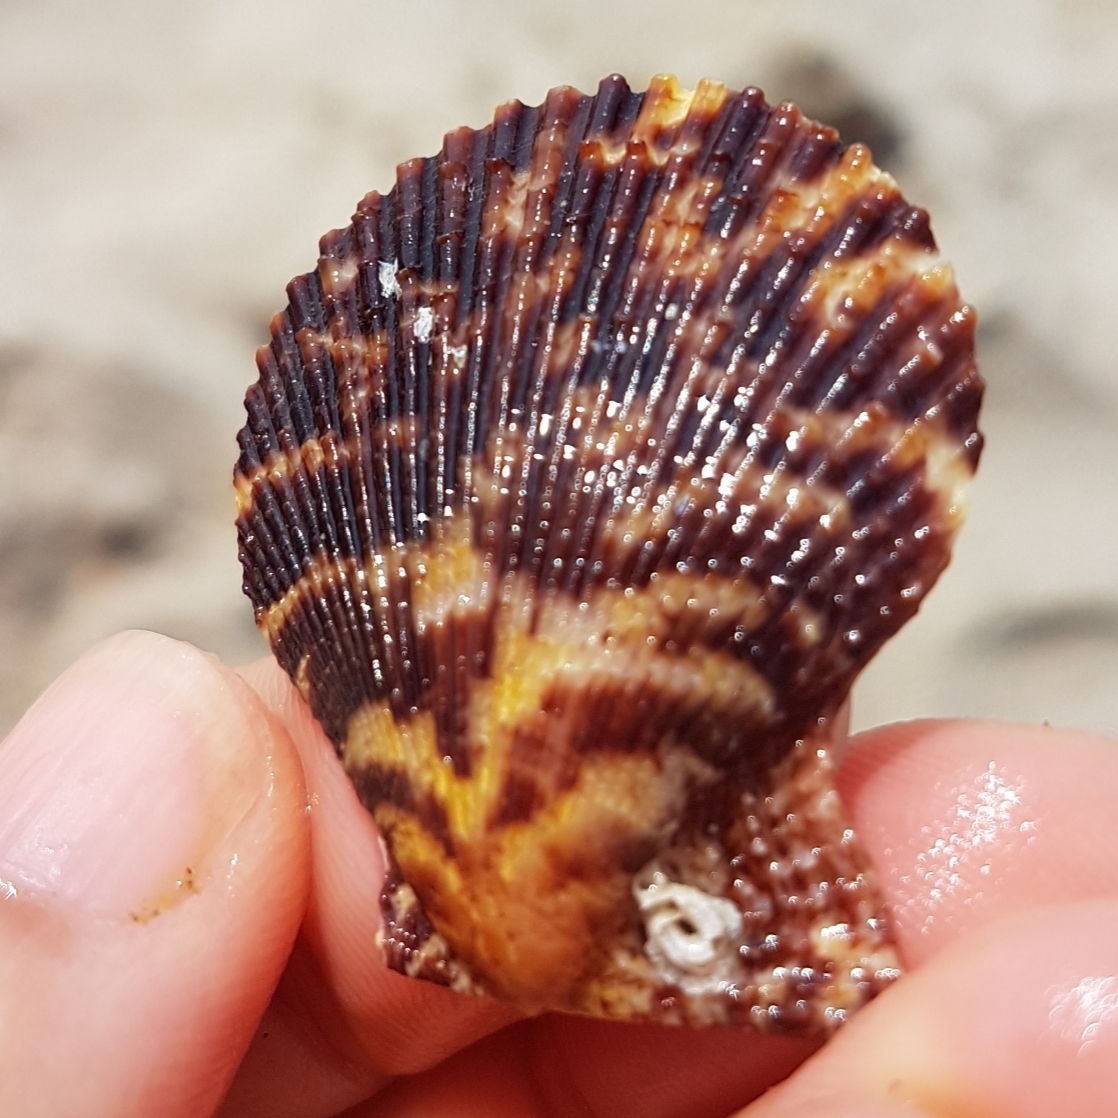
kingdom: Animalia
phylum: Mollusca
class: Bivalvia
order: Pectinida
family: Pectinidae
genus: Mimachlamys
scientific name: Mimachlamys varia
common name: Variegated scallop
